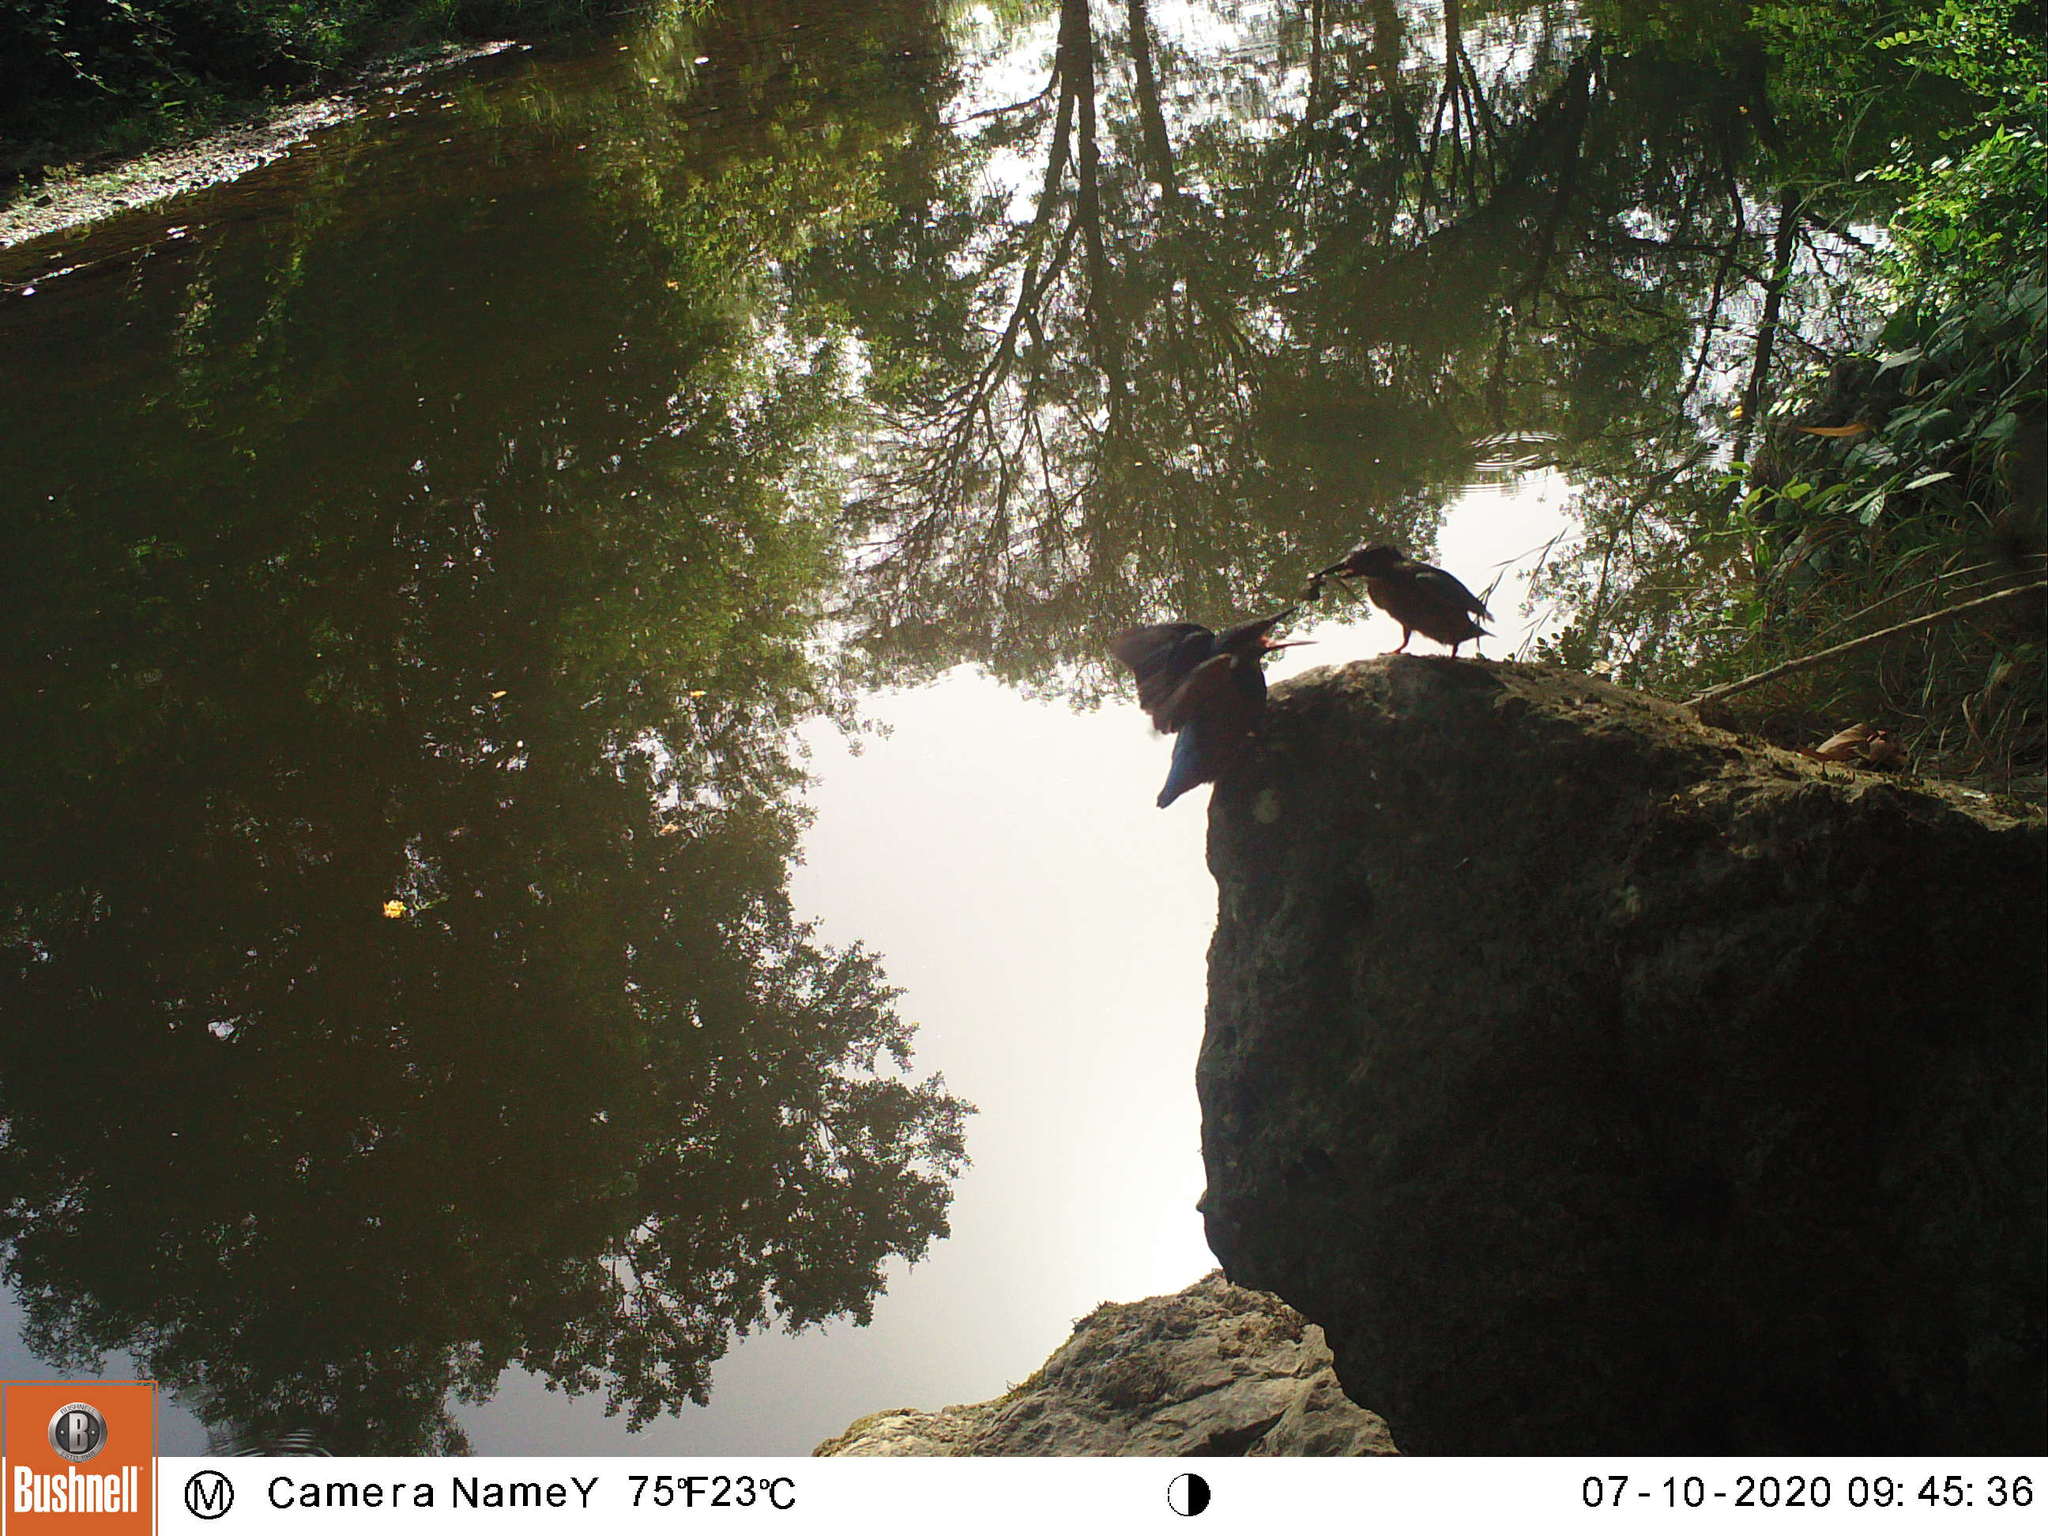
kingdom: Animalia
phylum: Chordata
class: Aves
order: Coraciiformes
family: Alcedinidae
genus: Alcedo
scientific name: Alcedo atthis
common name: Common kingfisher
